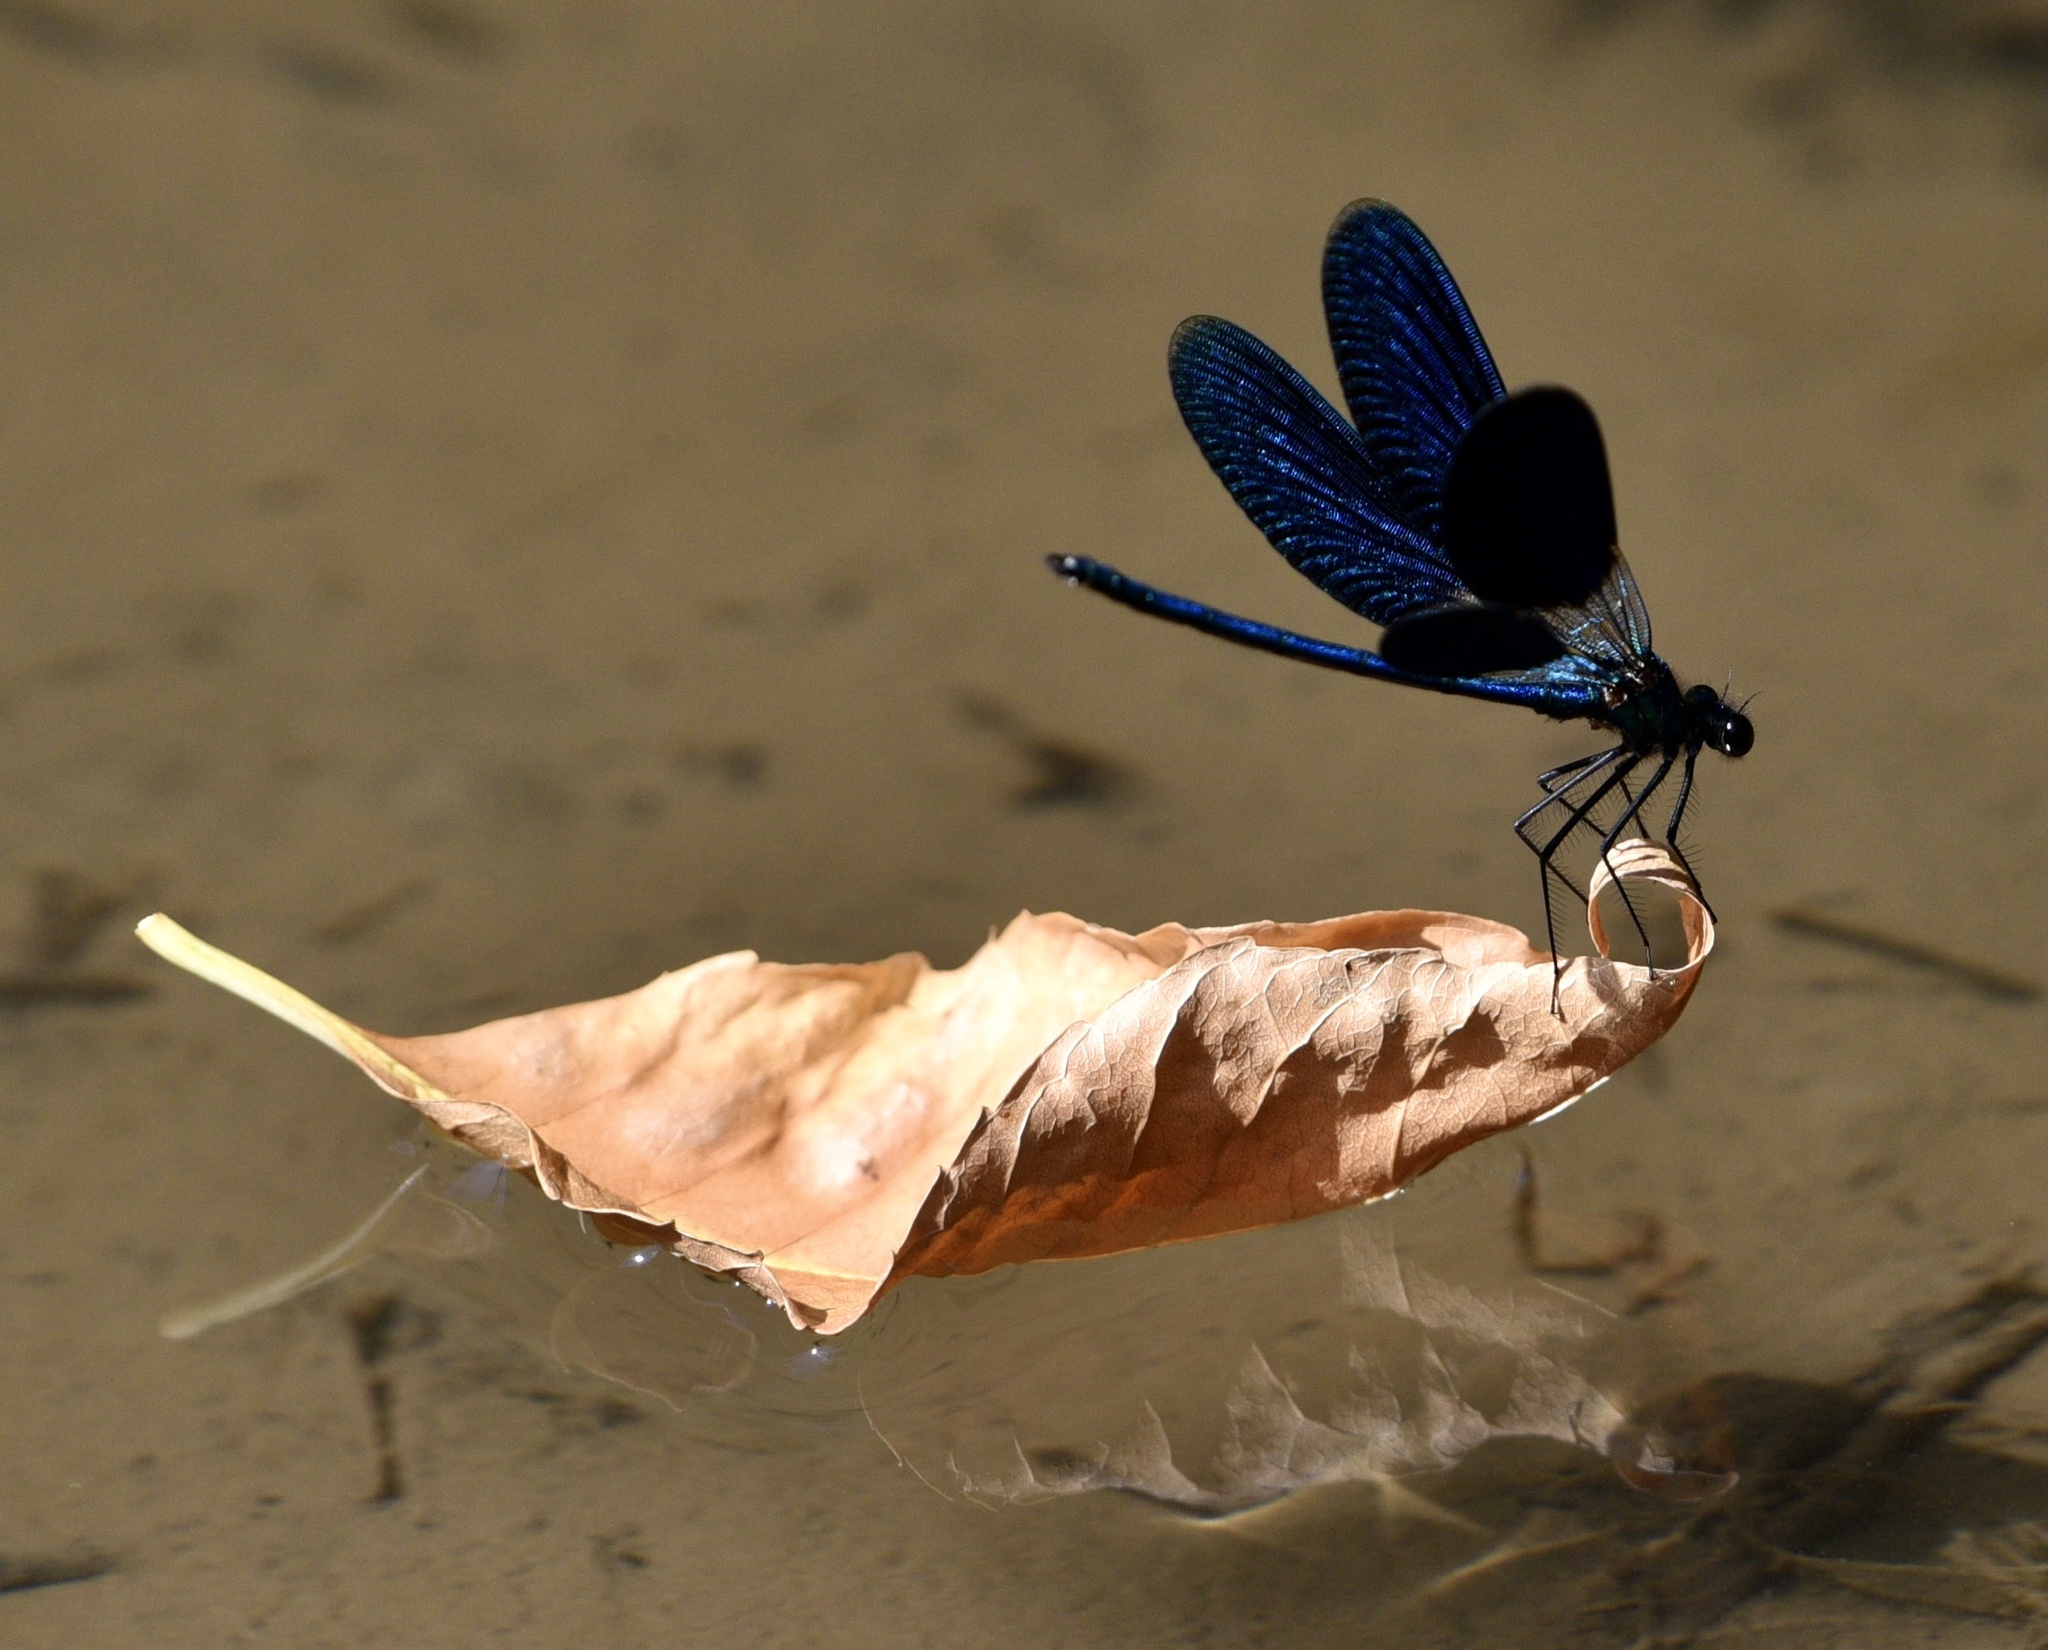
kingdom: Animalia
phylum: Arthropoda
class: Insecta
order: Odonata
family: Calopterygidae
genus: Calopteryx
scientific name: Calopteryx splendens
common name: Banded demoiselle
